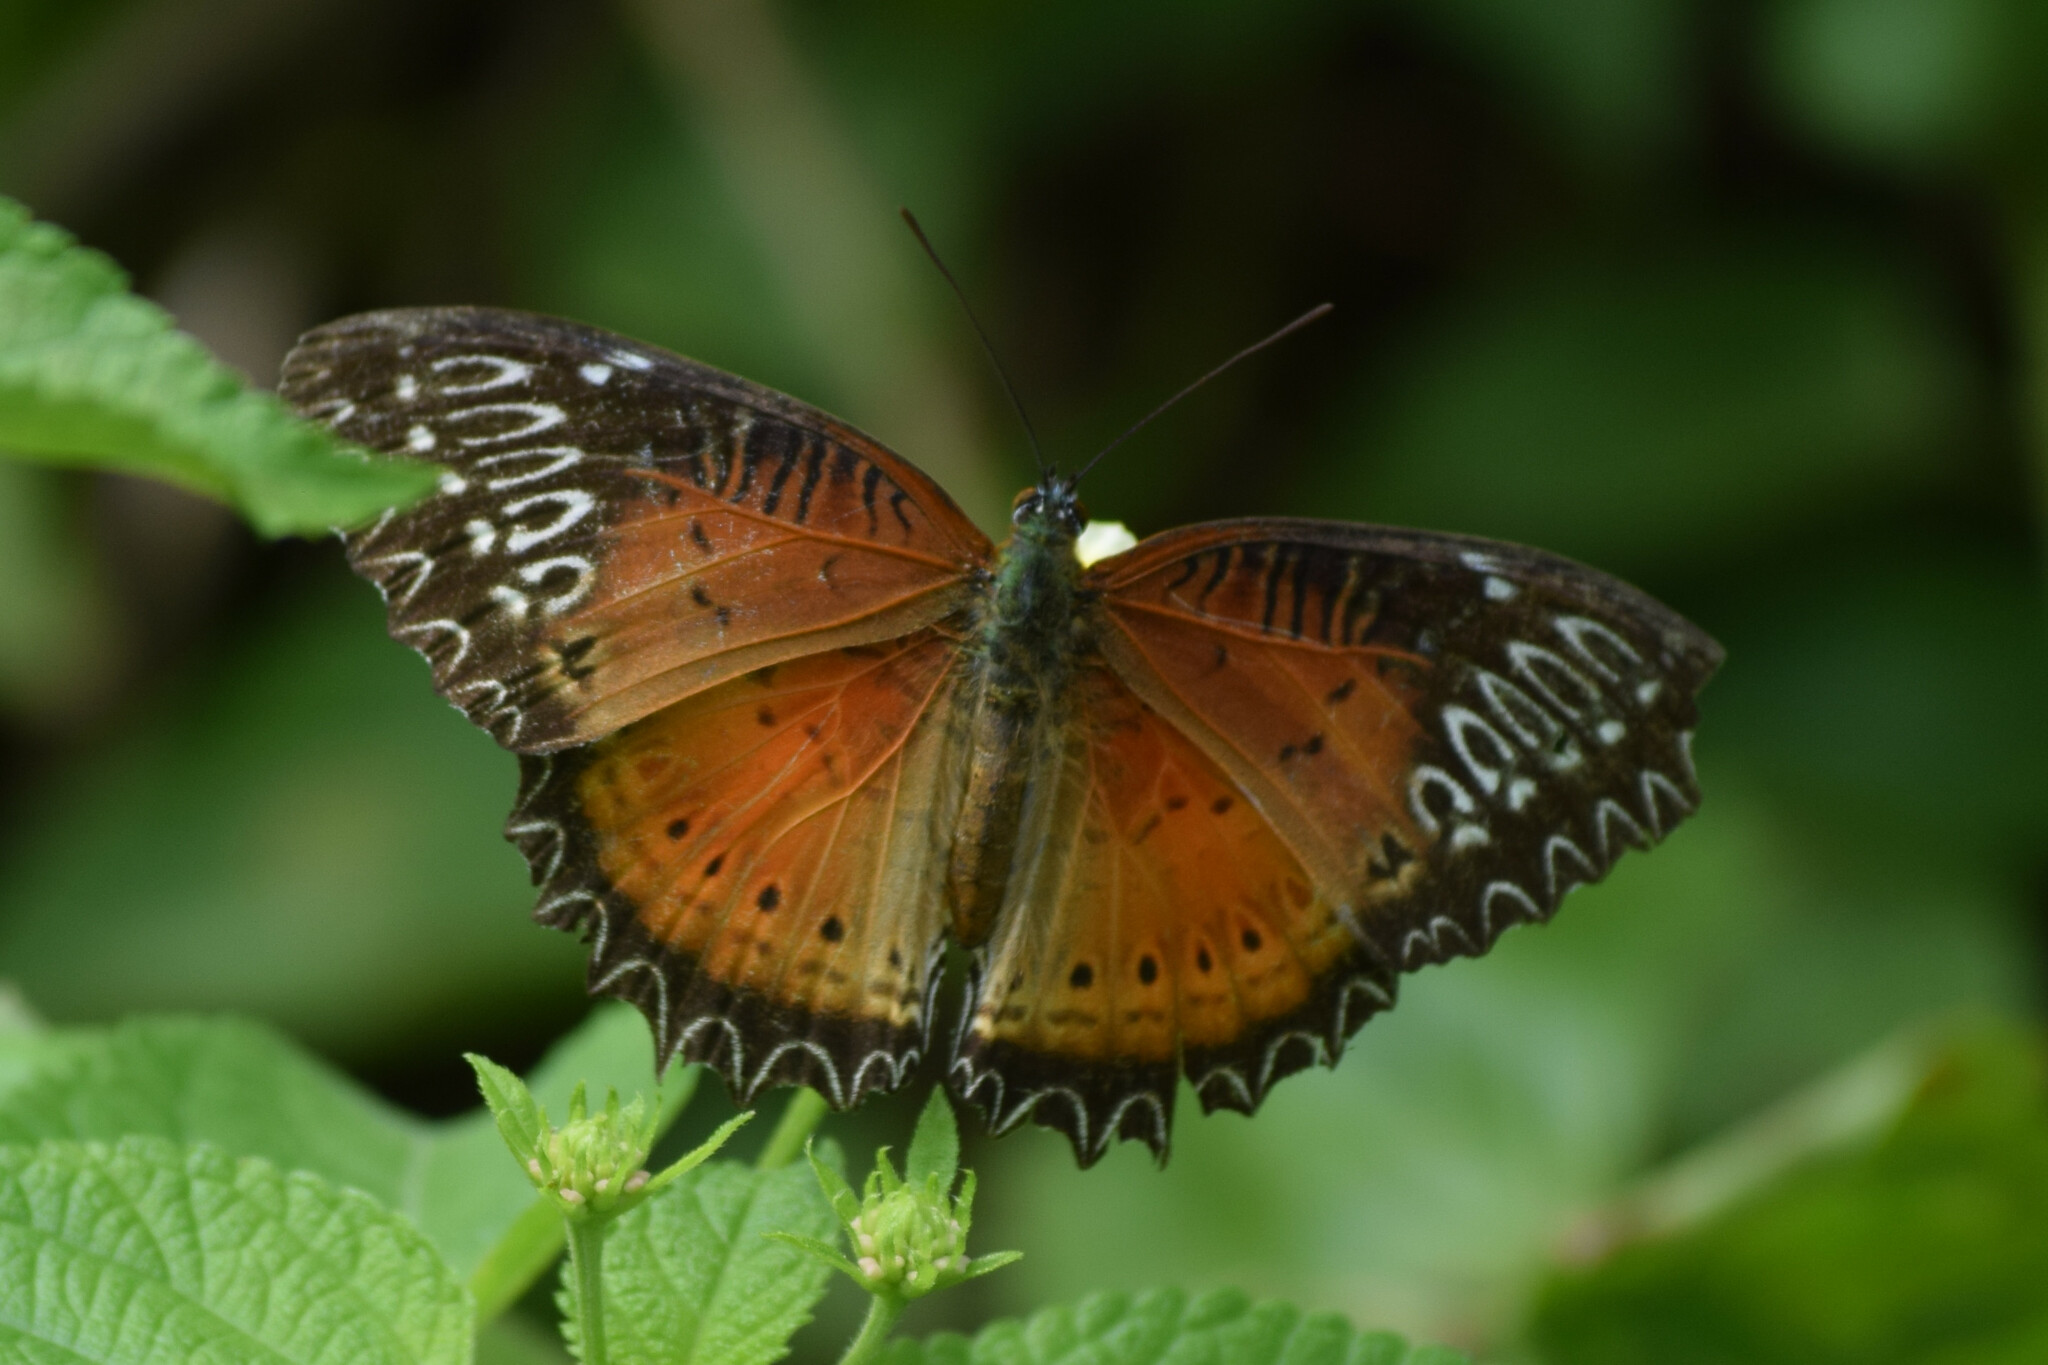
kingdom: Animalia
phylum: Arthropoda
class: Insecta
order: Lepidoptera
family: Nymphalidae
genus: Cethosia
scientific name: Cethosia biblis
